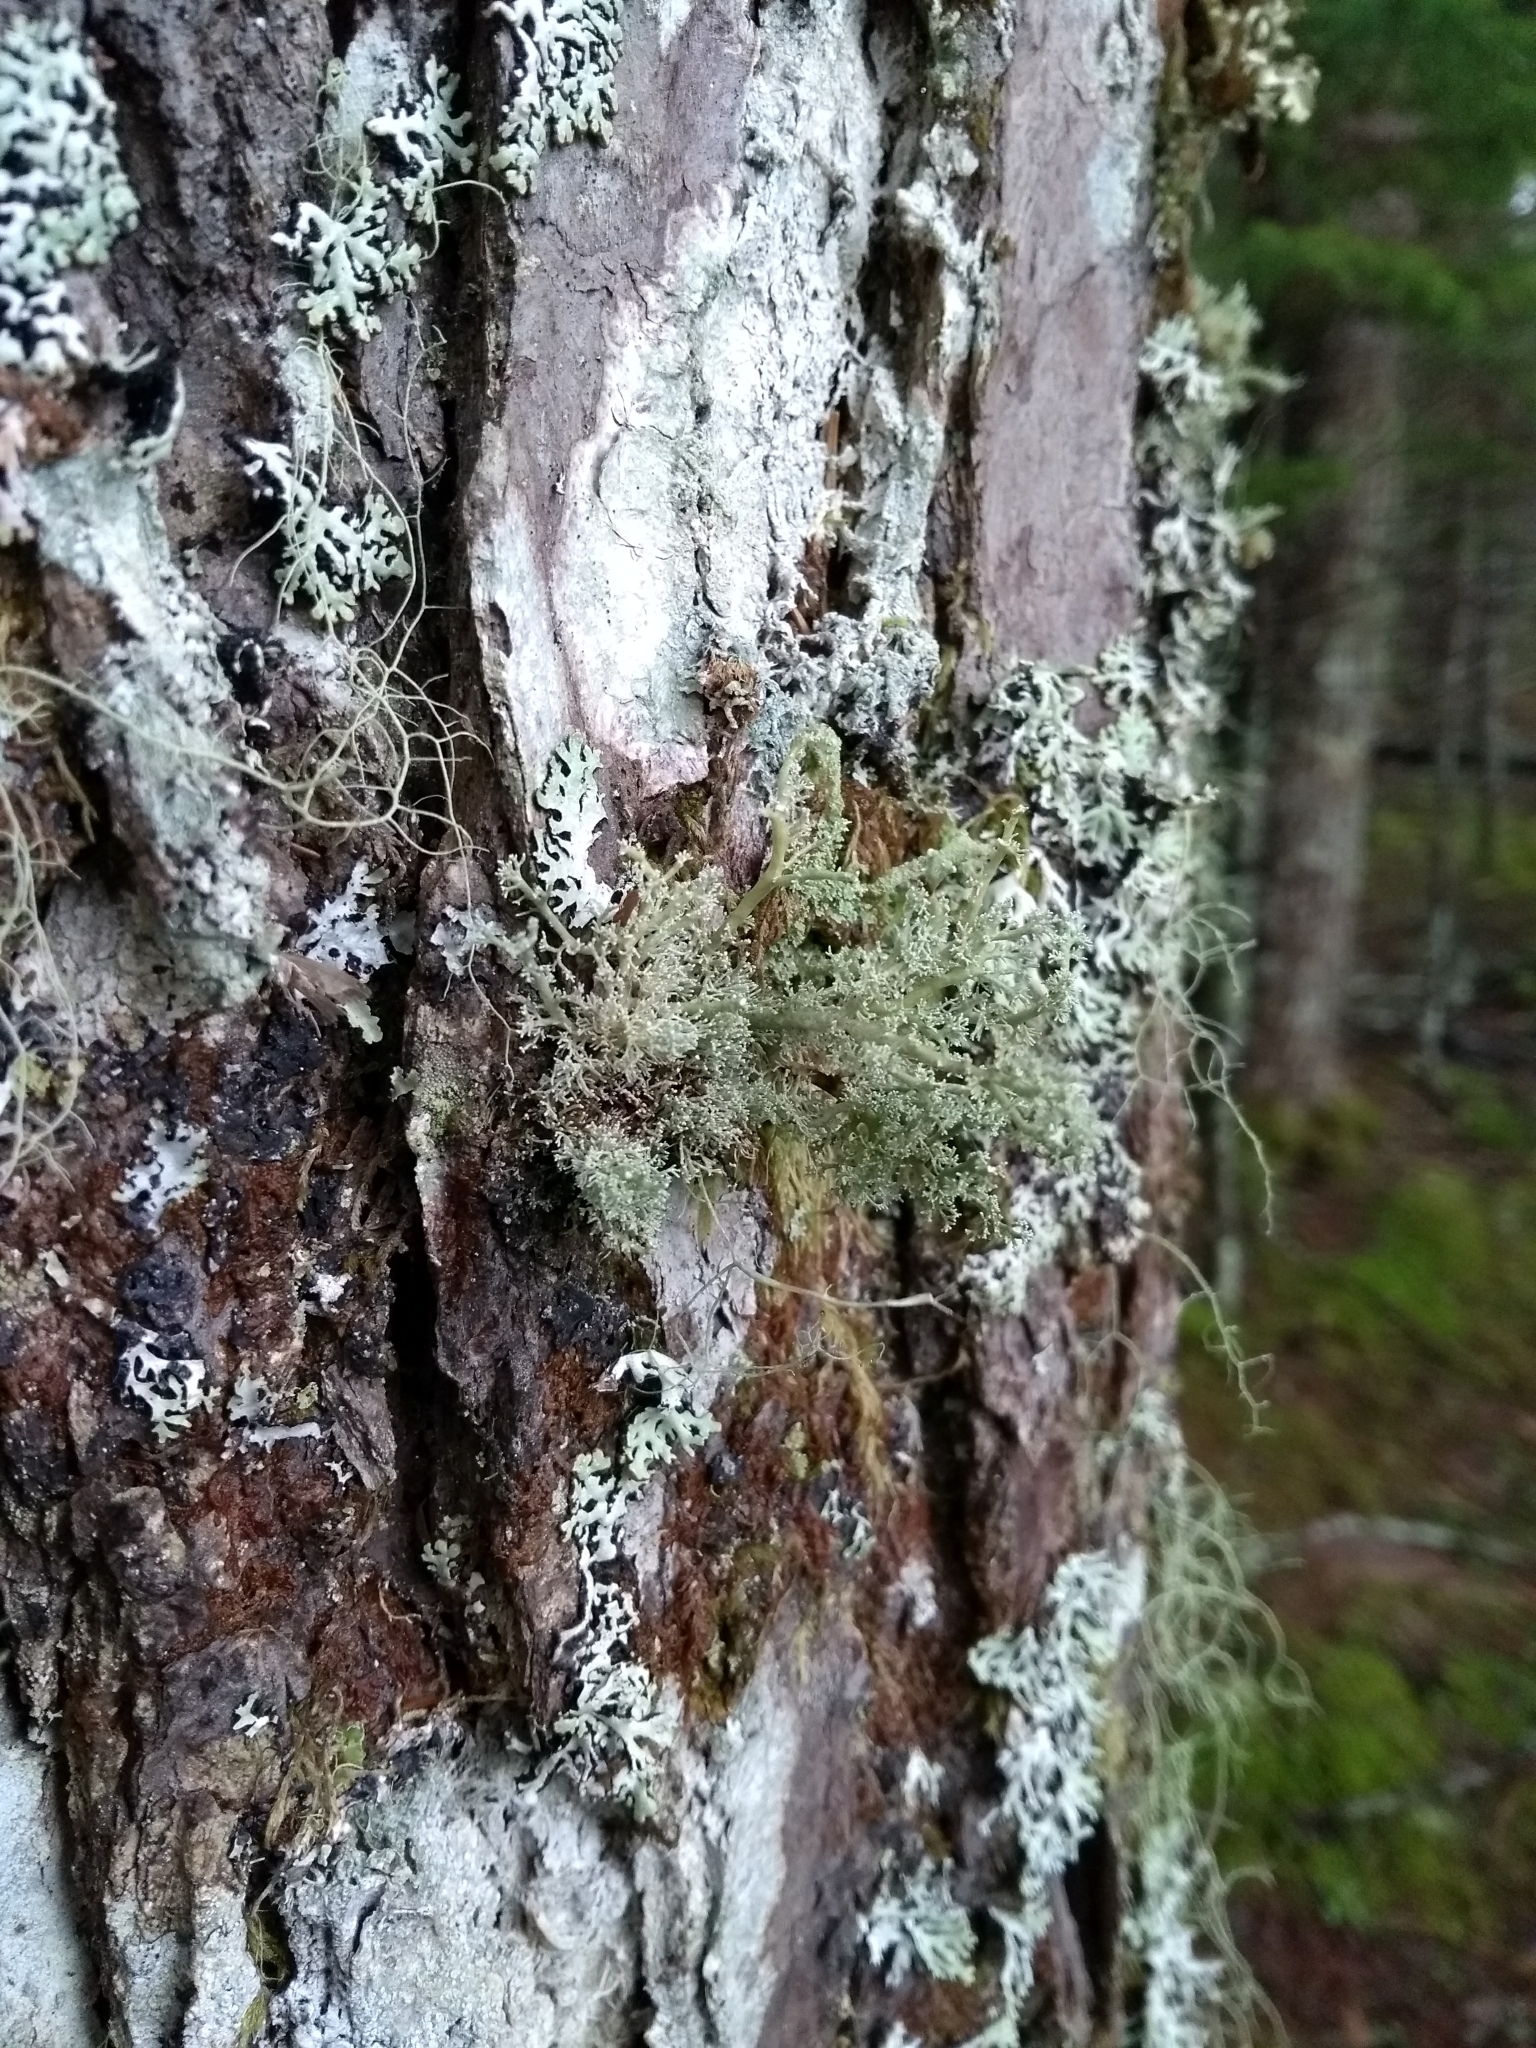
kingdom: Fungi
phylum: Ascomycota
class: Lecanoromycetes
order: Lecanorales
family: Sphaerophoraceae
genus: Sphaerophorus
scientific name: Sphaerophorus globosus
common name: Globe ball lichen
